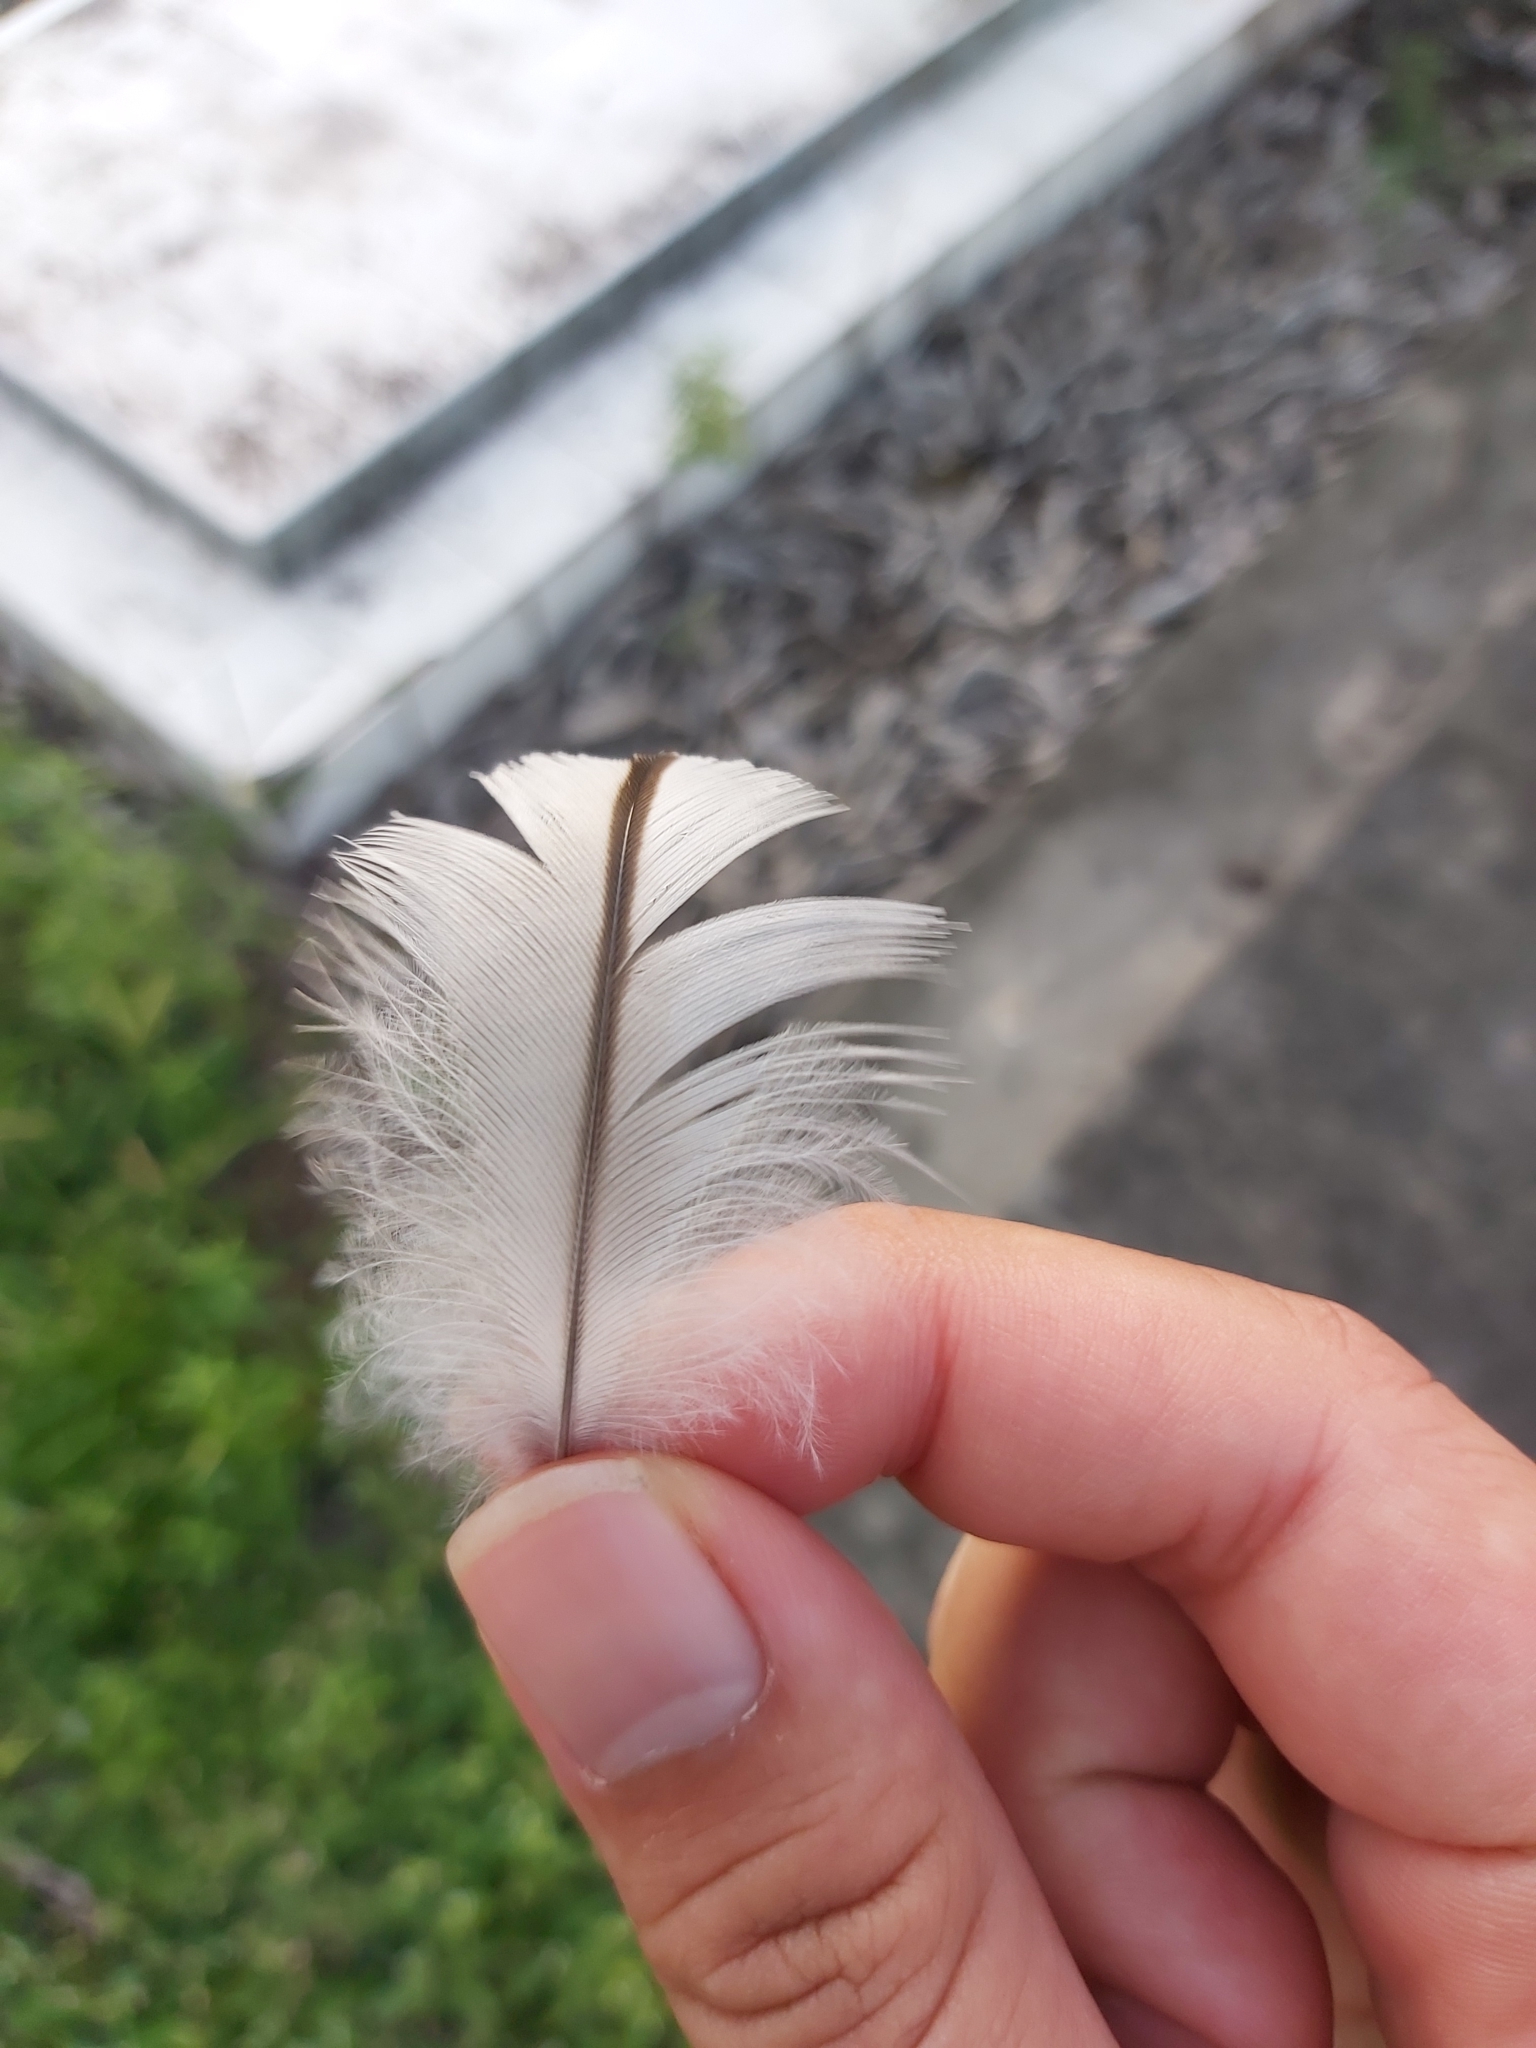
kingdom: Animalia
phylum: Chordata
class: Aves
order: Charadriiformes
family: Burhinidae
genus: Burhinus
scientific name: Burhinus grallarius
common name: Bush stone-curlew
